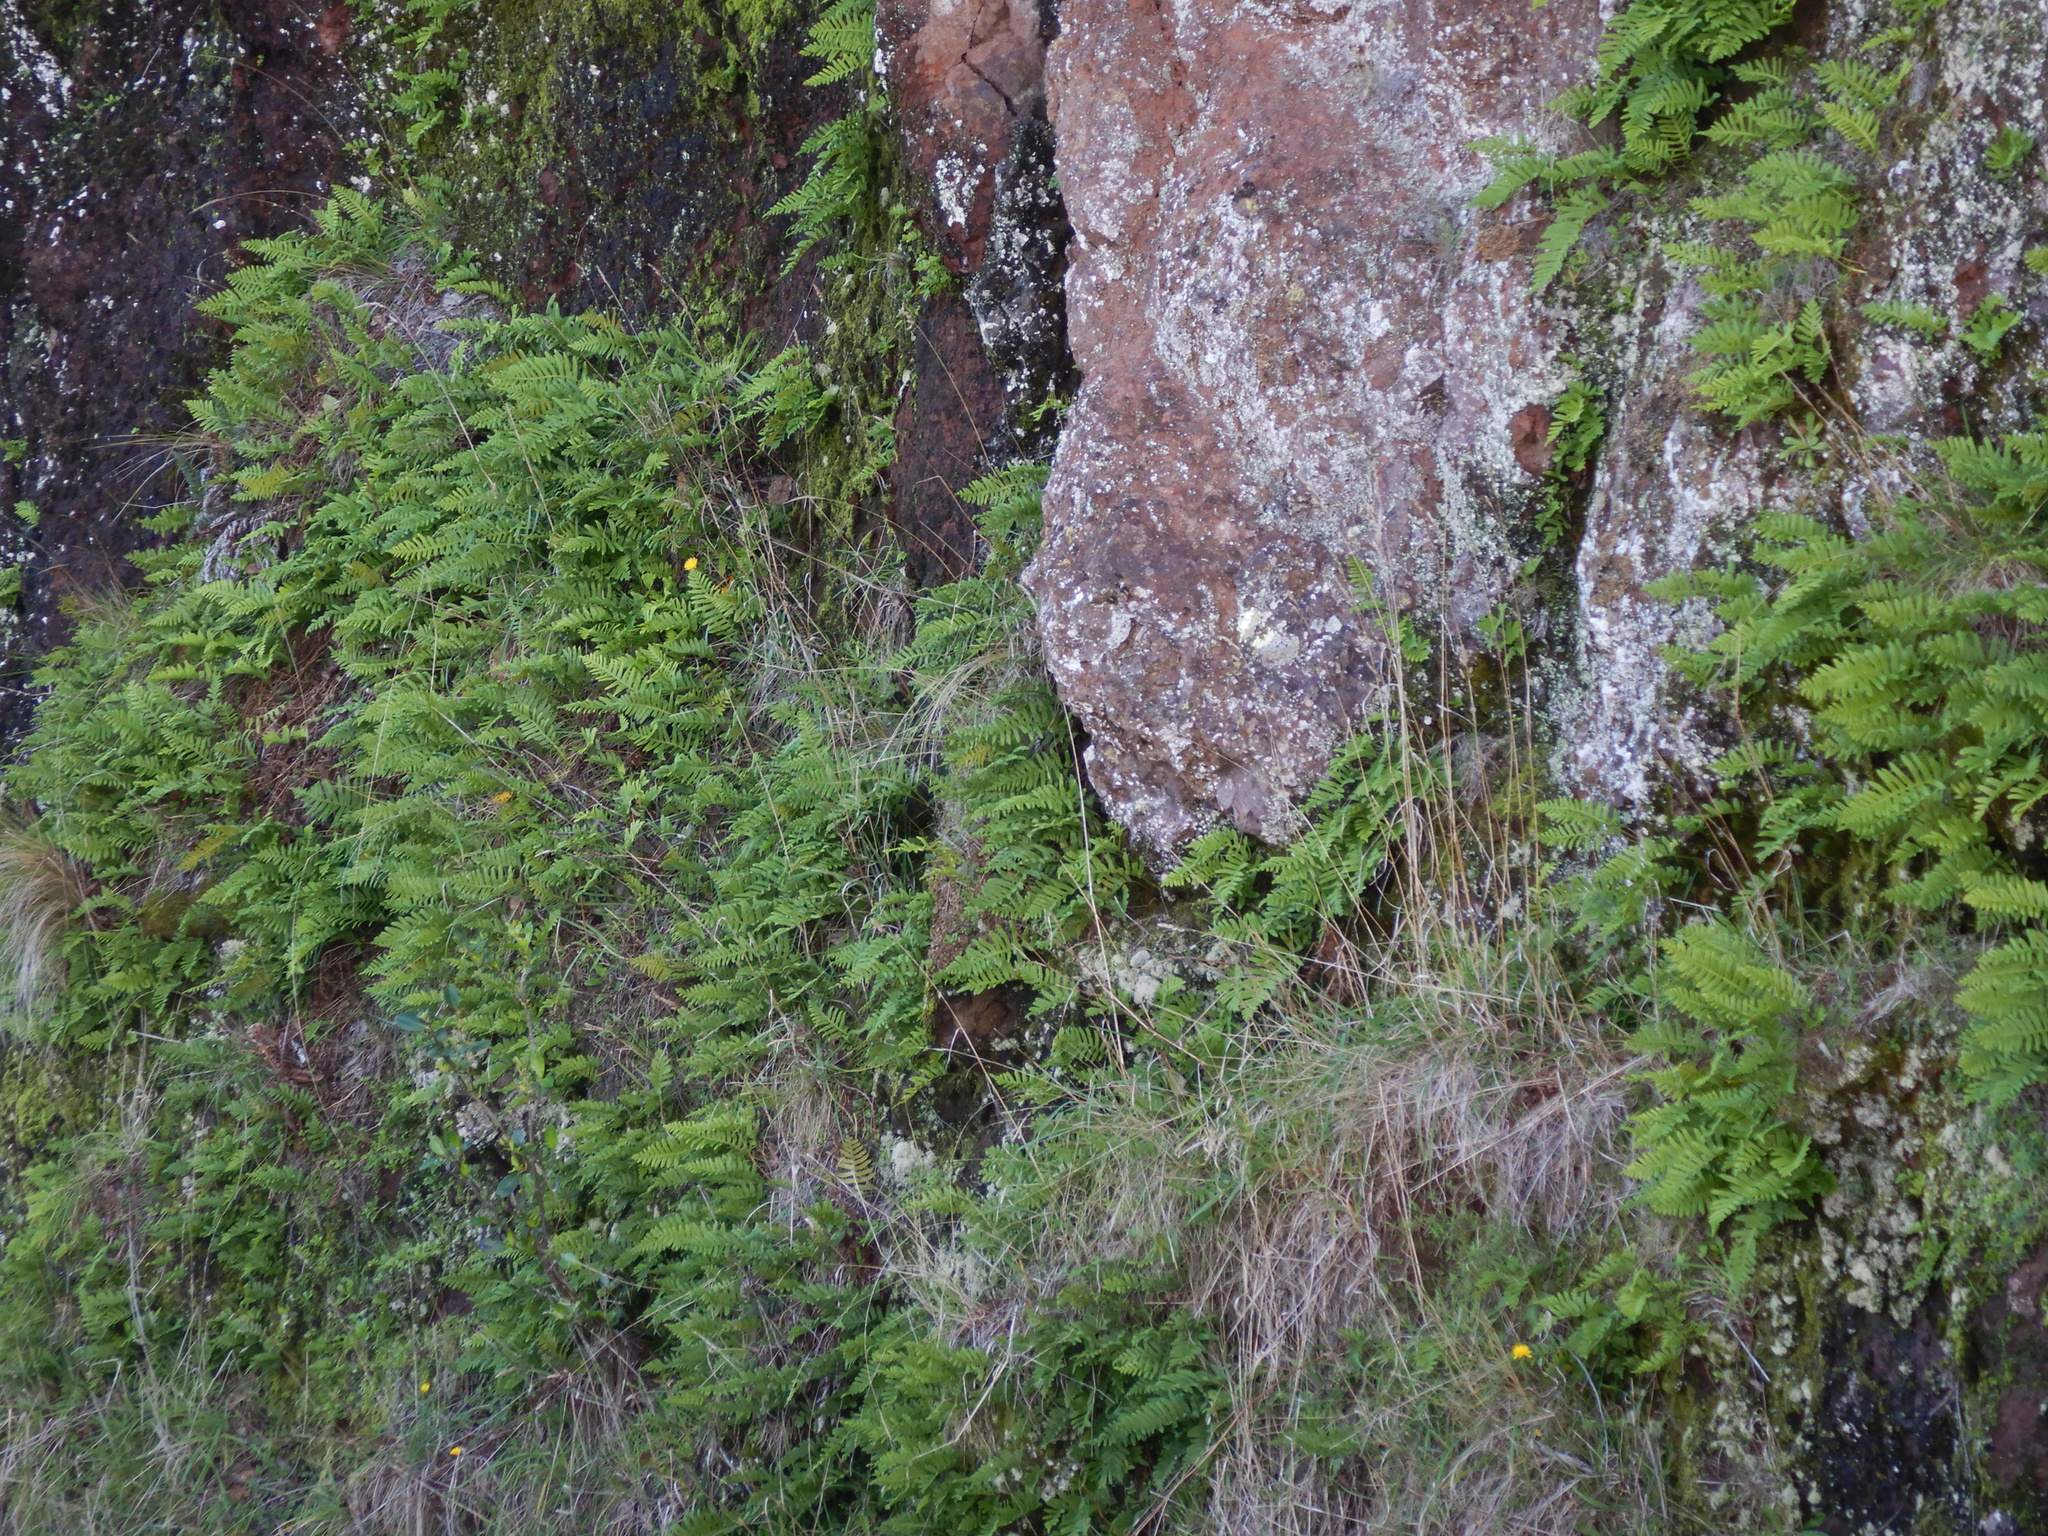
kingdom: Plantae
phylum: Tracheophyta
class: Polypodiopsida
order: Polypodiales
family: Polypodiaceae
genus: Polypodium
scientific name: Polypodium vulgare
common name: Common polypody
